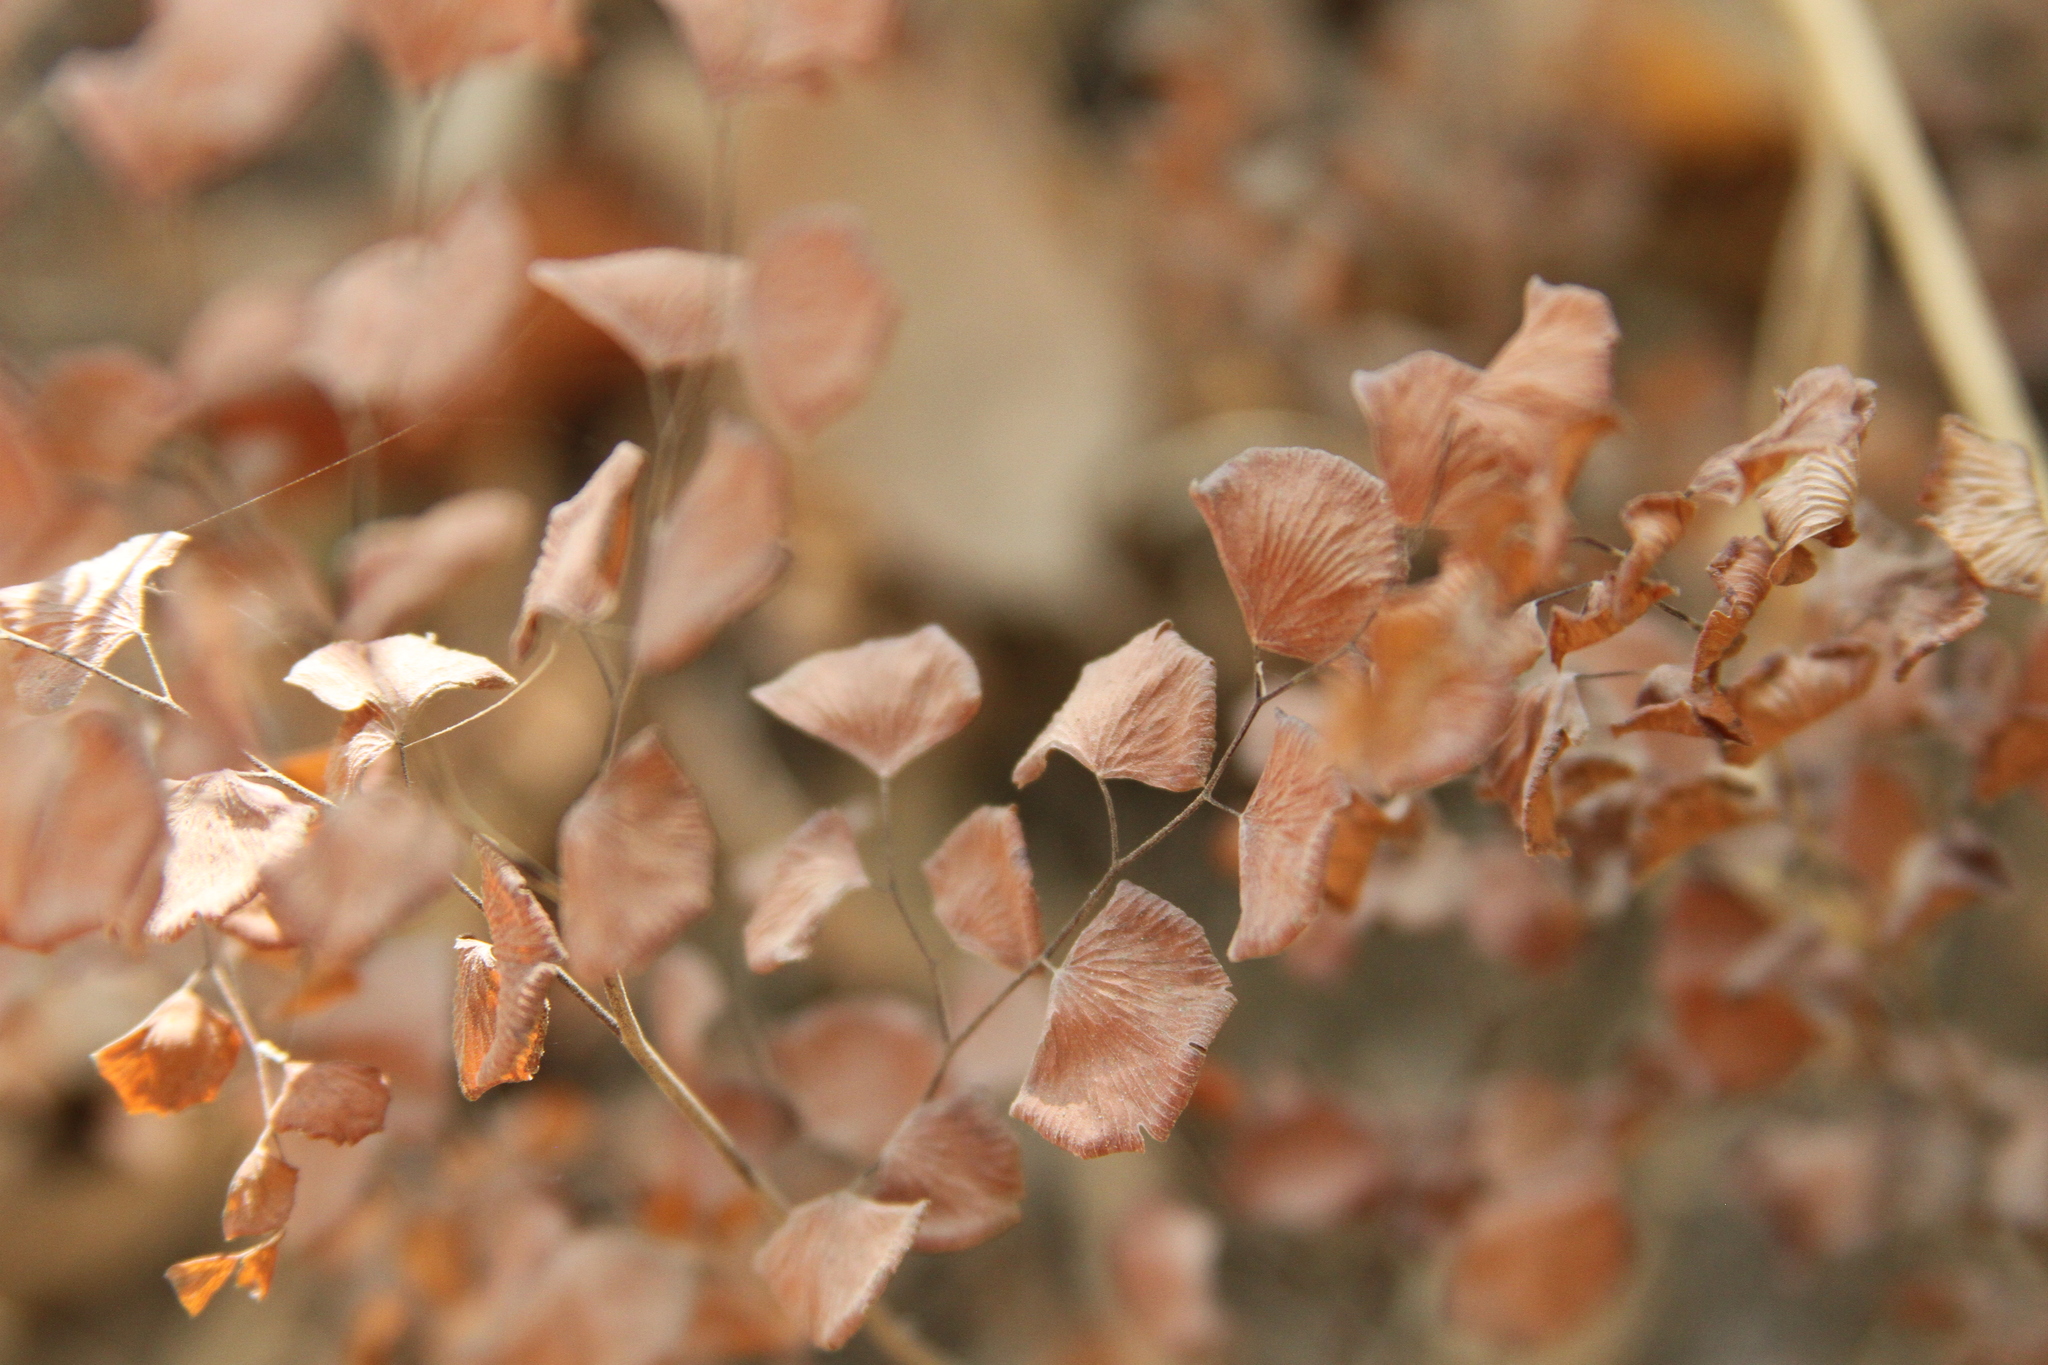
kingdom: Plantae
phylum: Tracheophyta
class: Polypodiopsida
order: Polypodiales
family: Pteridaceae
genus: Adiantum
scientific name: Adiantum jordanii
